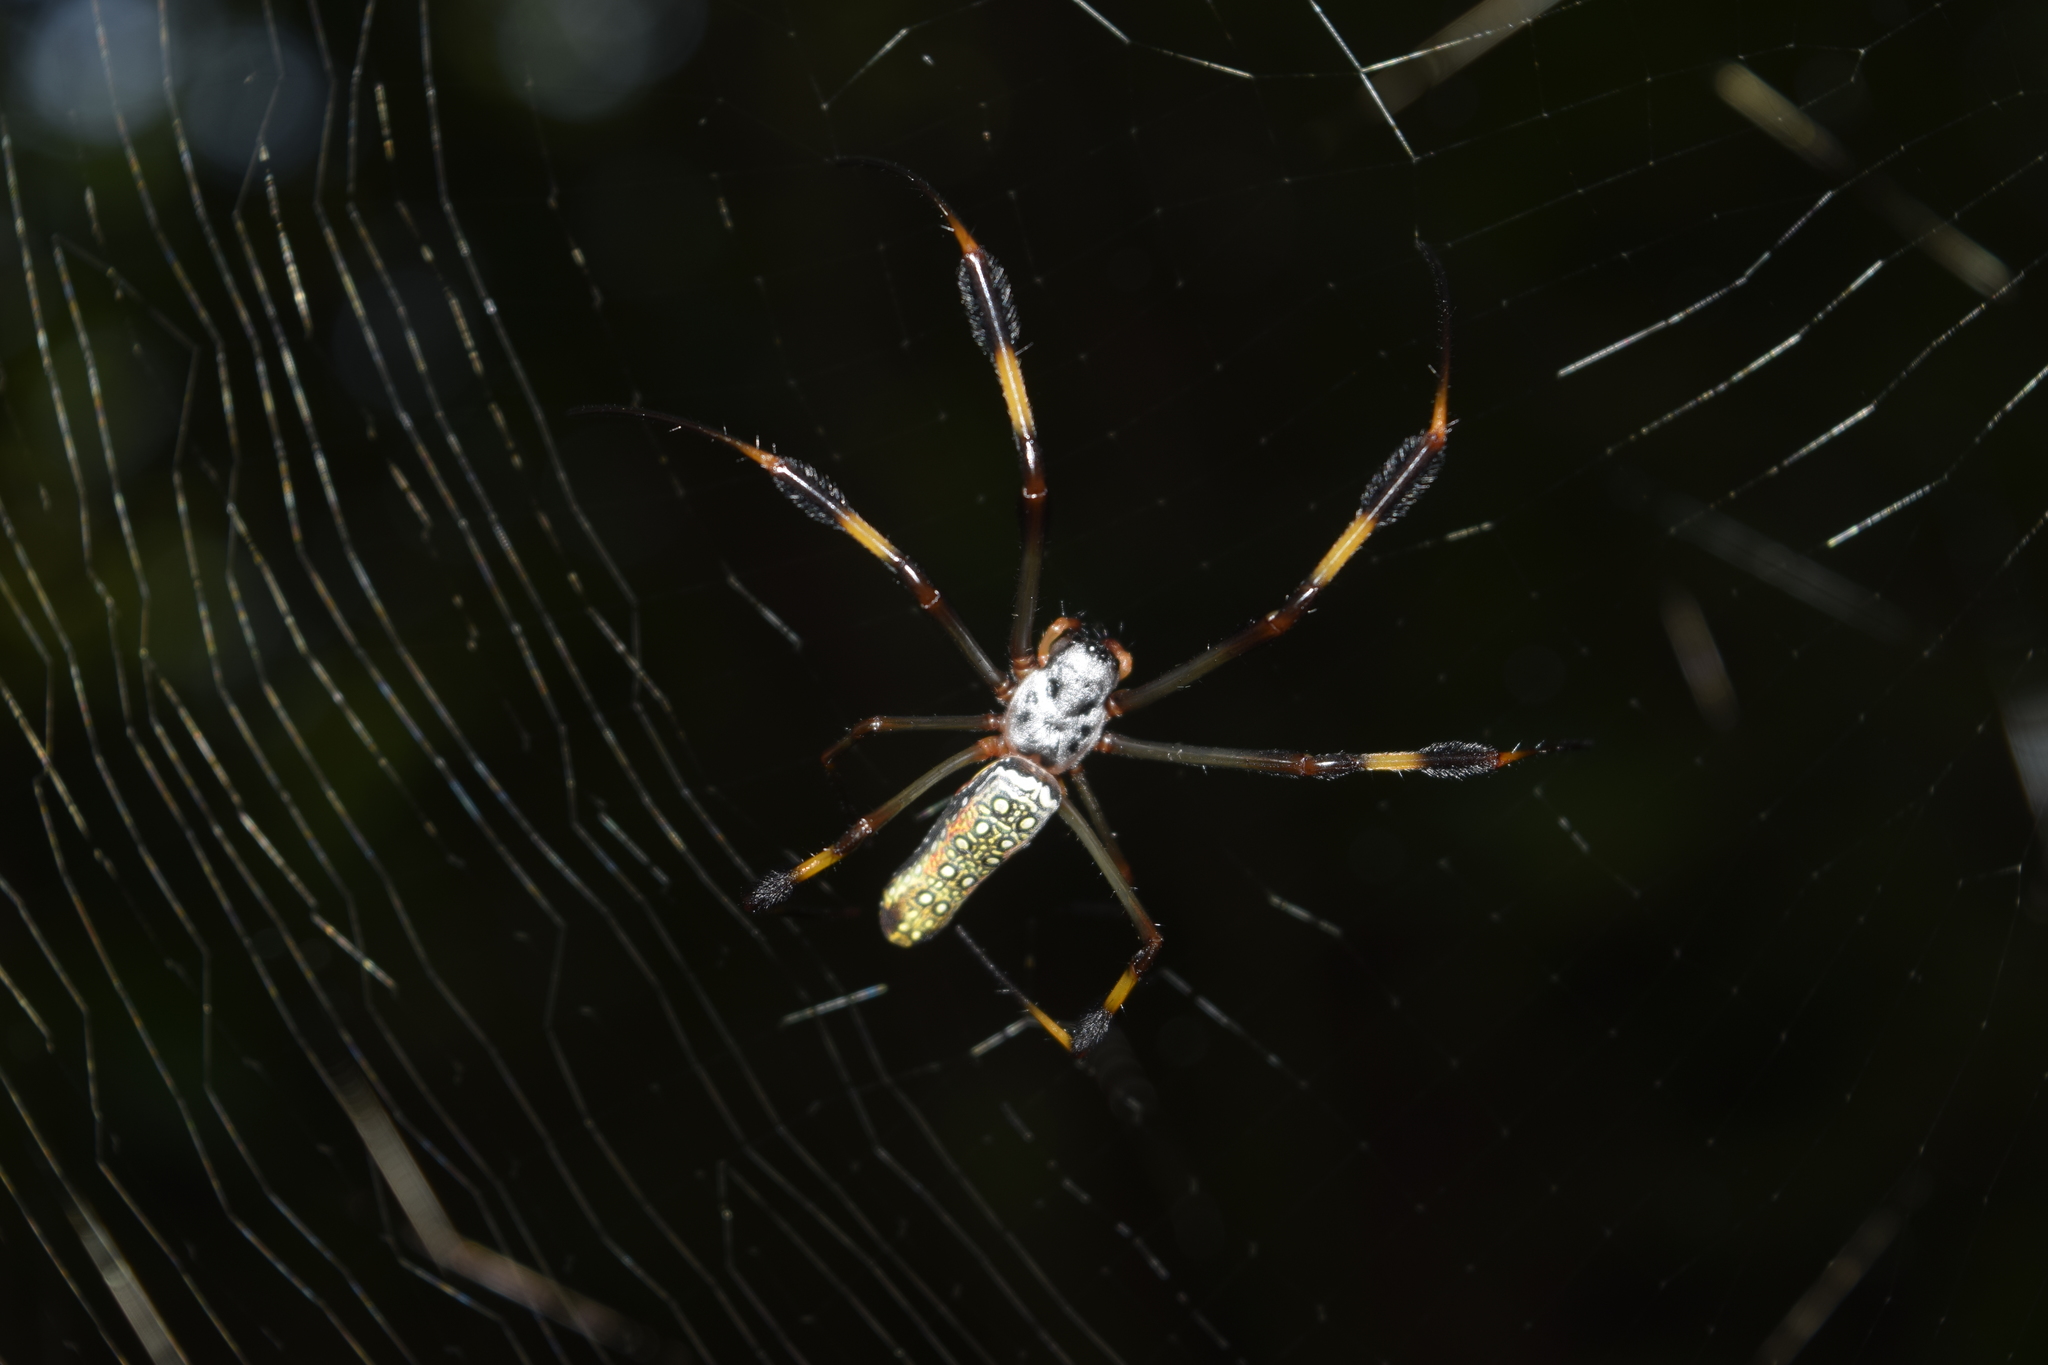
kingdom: Animalia
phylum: Arthropoda
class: Arachnida
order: Araneae
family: Araneidae
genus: Trichonephila
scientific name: Trichonephila clavipes
